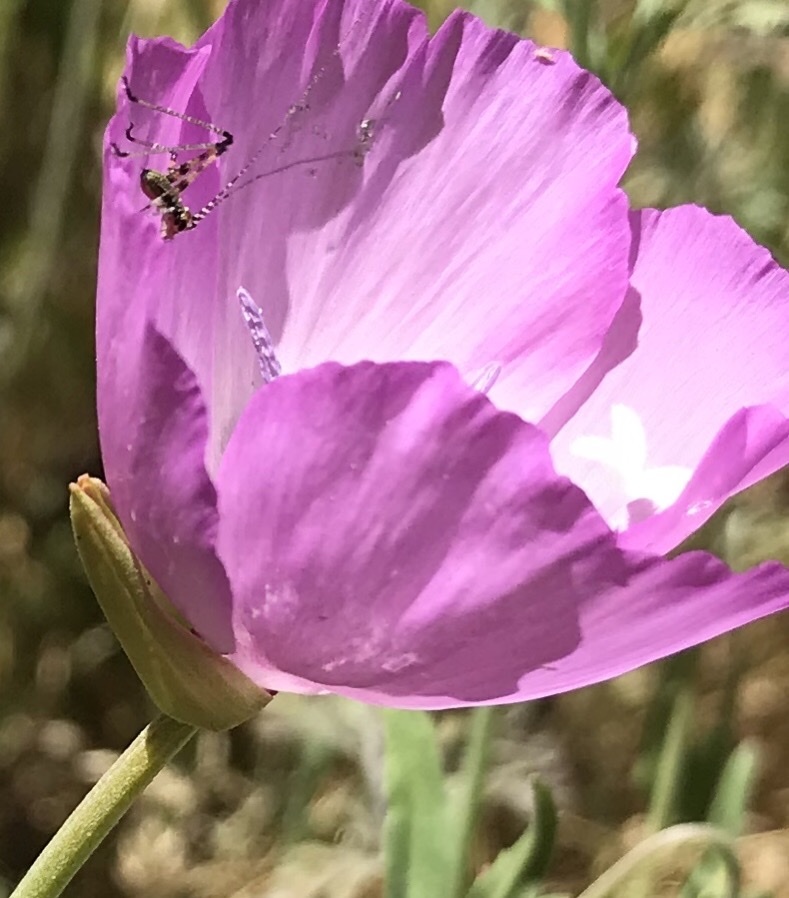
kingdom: Animalia
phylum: Arthropoda
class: Insecta
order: Orthoptera
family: Tettigoniidae
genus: Phaneroptera
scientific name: Phaneroptera nana
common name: Southern sickle bush-cricket
